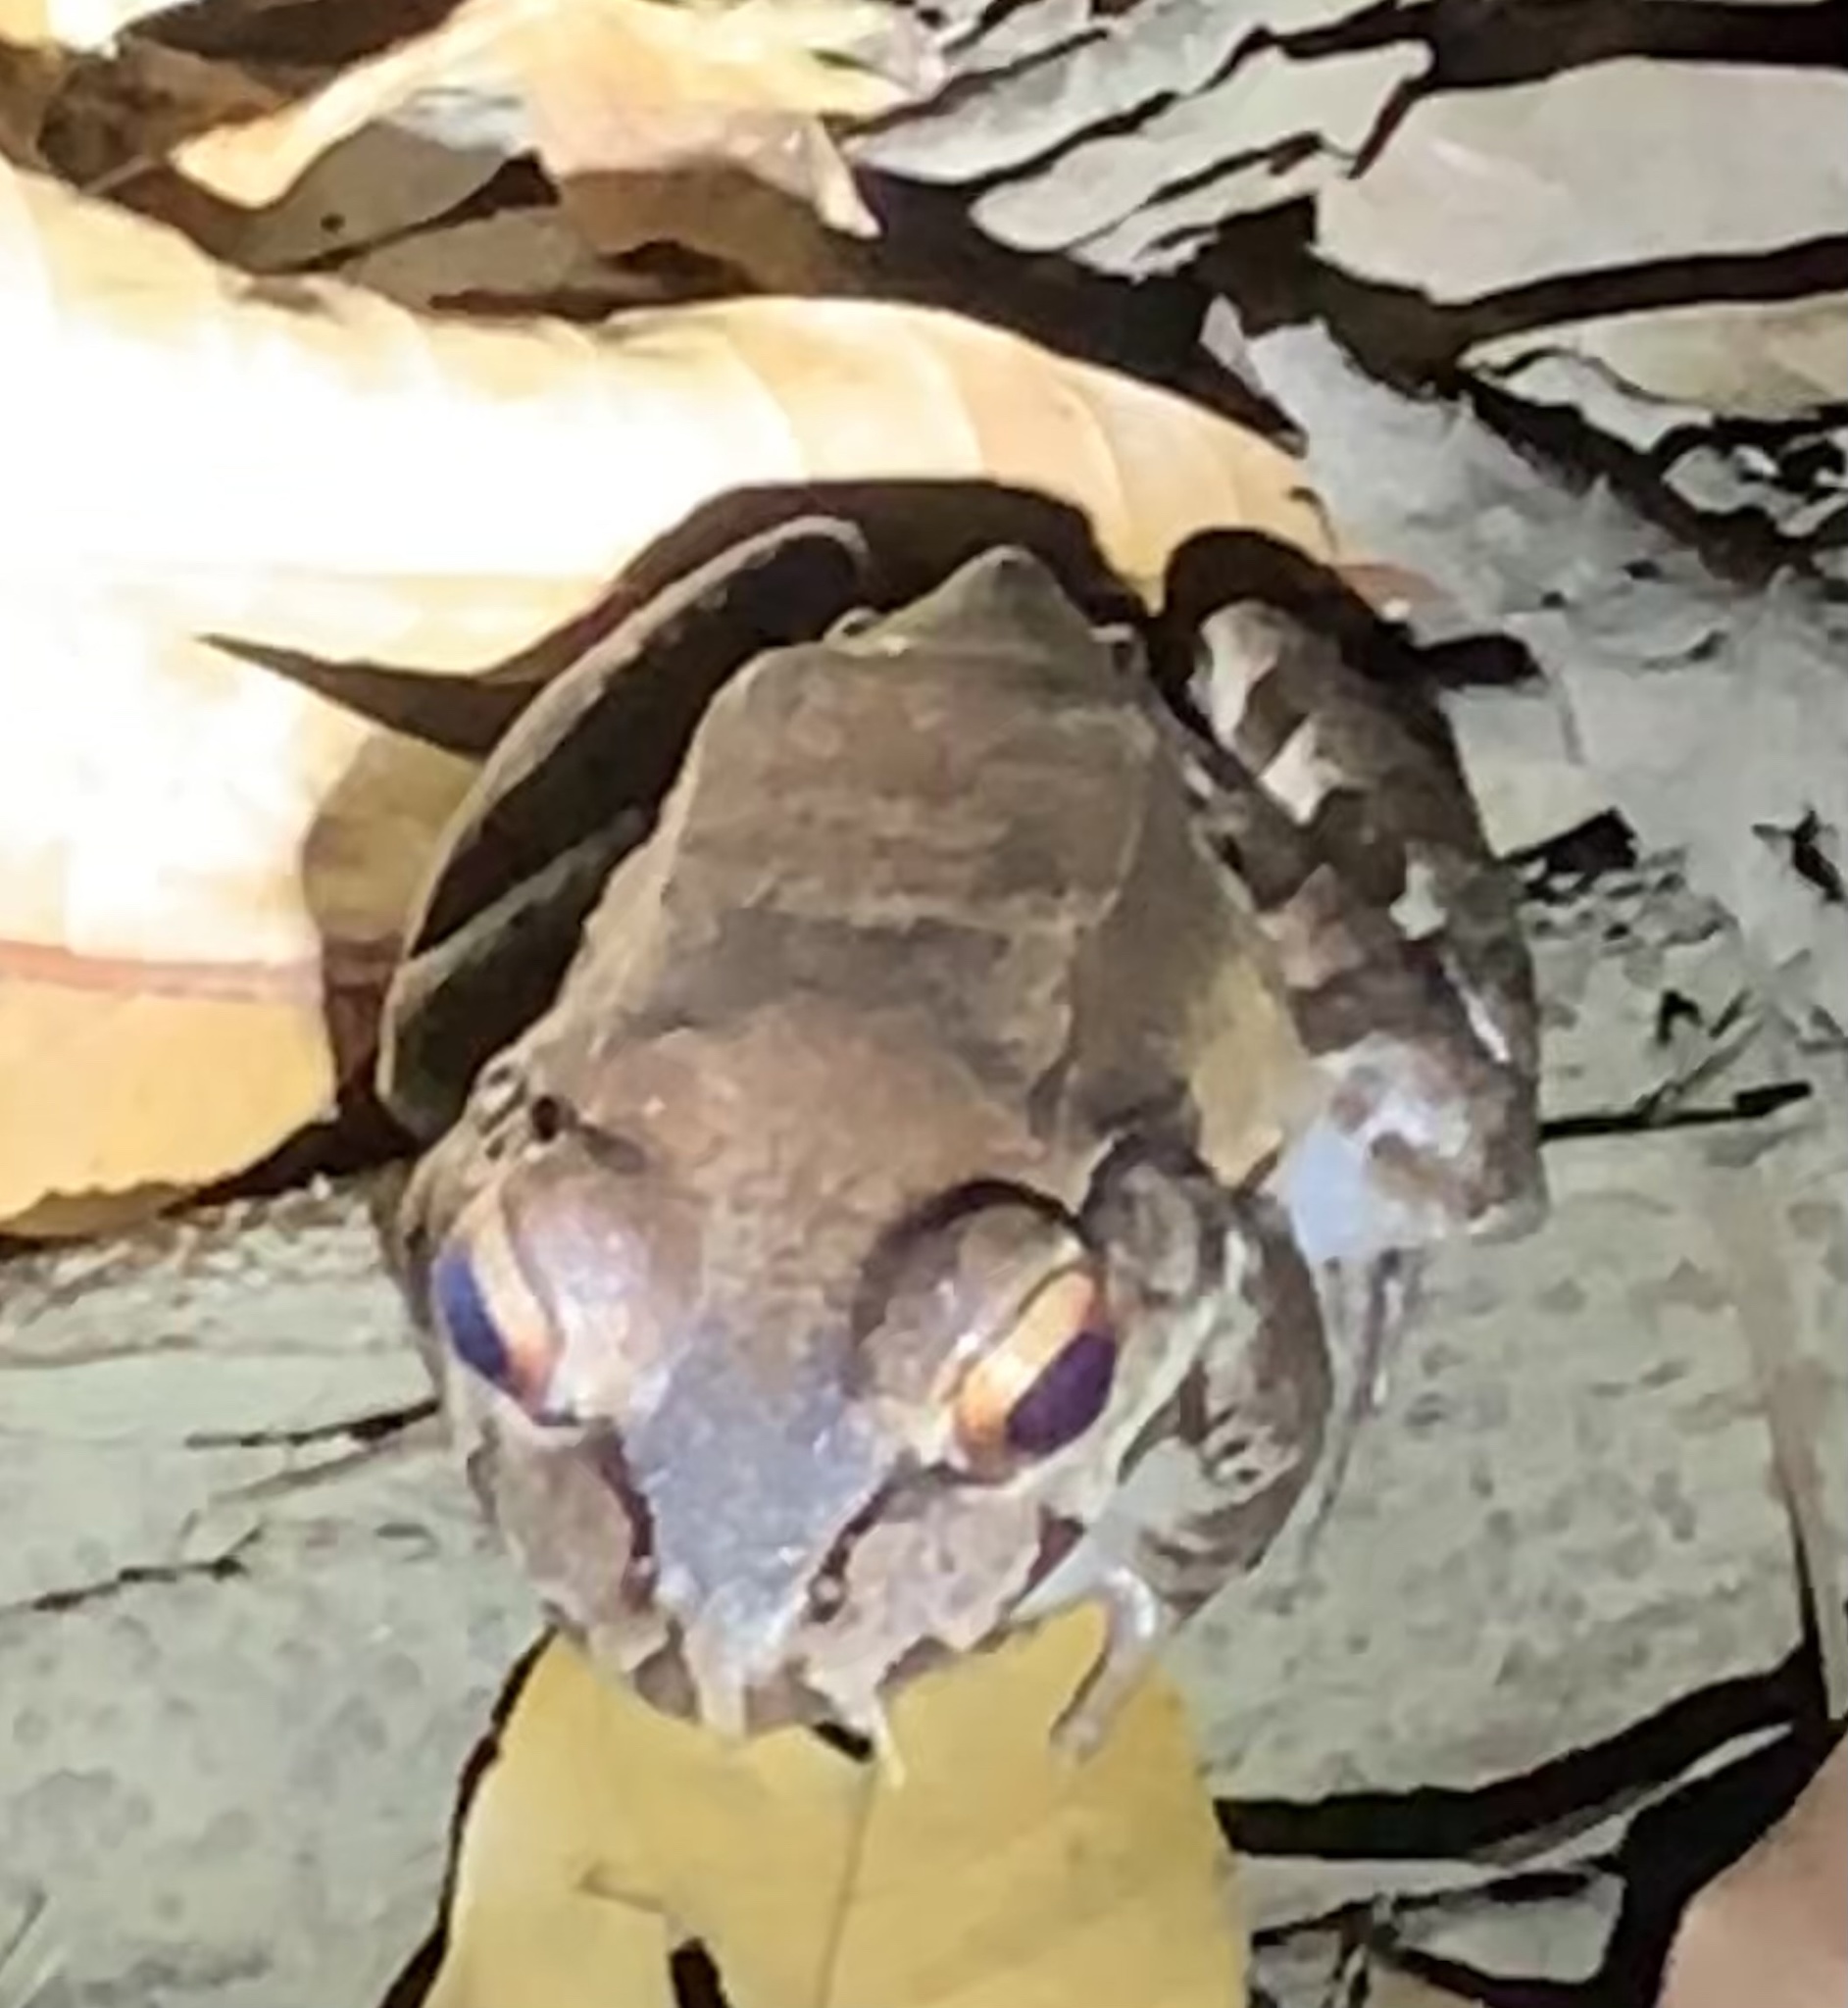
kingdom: Animalia
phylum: Chordata
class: Amphibia
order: Anura
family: Leptodactylidae
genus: Leptodactylus
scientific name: Leptodactylus savagei
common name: Savage's thin-toed frog
